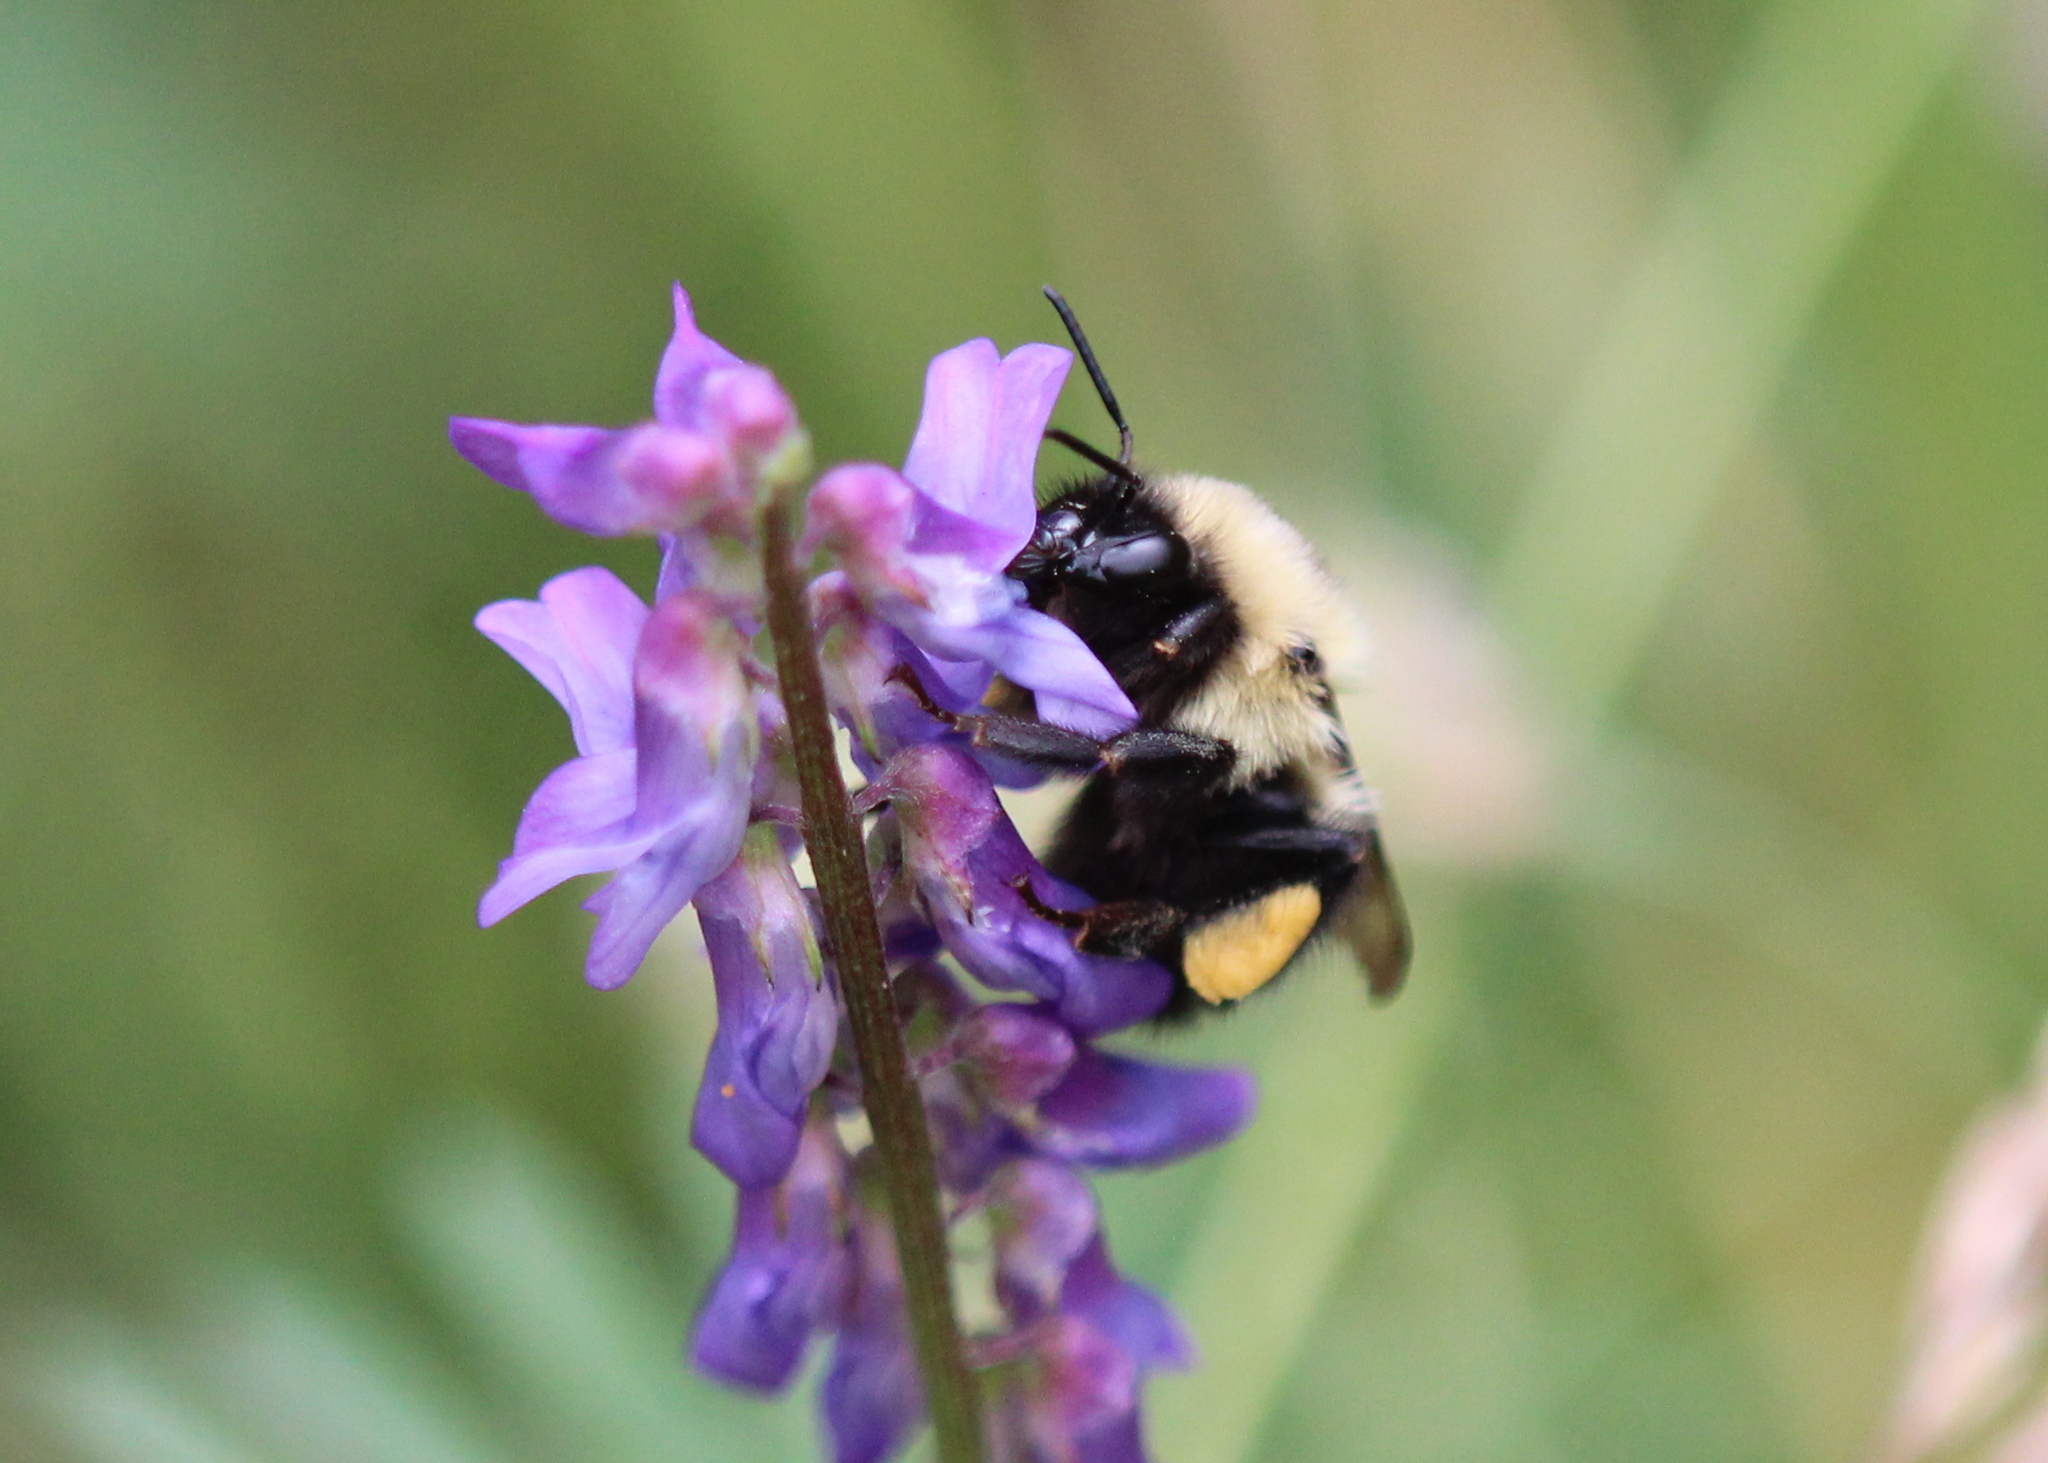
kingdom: Animalia
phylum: Arthropoda
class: Insecta
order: Hymenoptera
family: Apidae
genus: Bombus
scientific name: Bombus bimaculatus
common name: Two-spotted bumble bee
